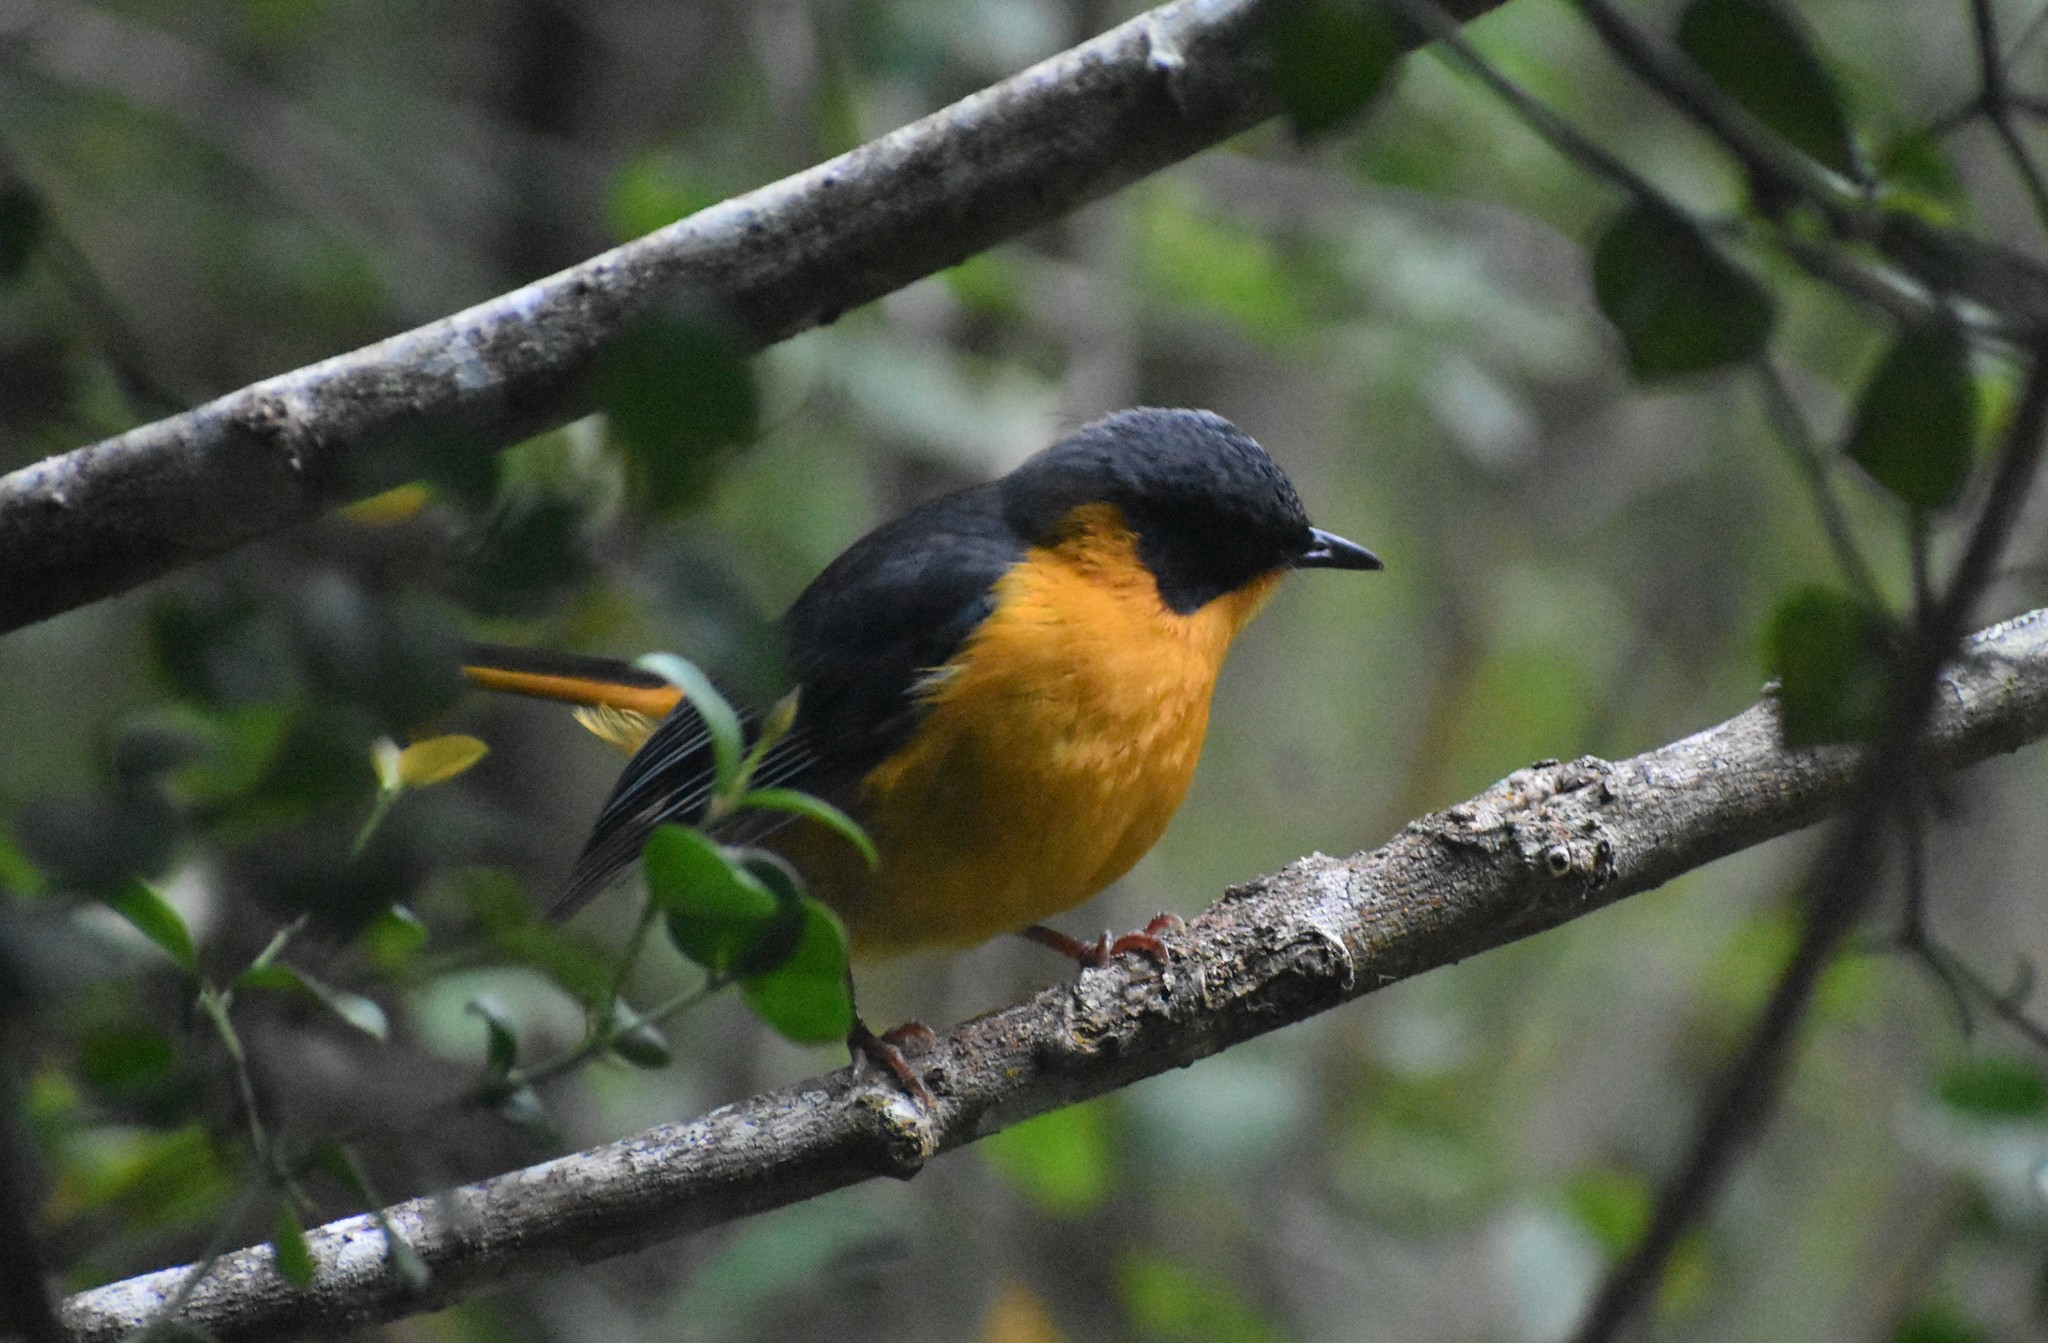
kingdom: Animalia
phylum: Chordata
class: Aves
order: Passeriformes
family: Muscicapidae
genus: Cossypha
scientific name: Cossypha dichroa
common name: Chorister robin-chat
